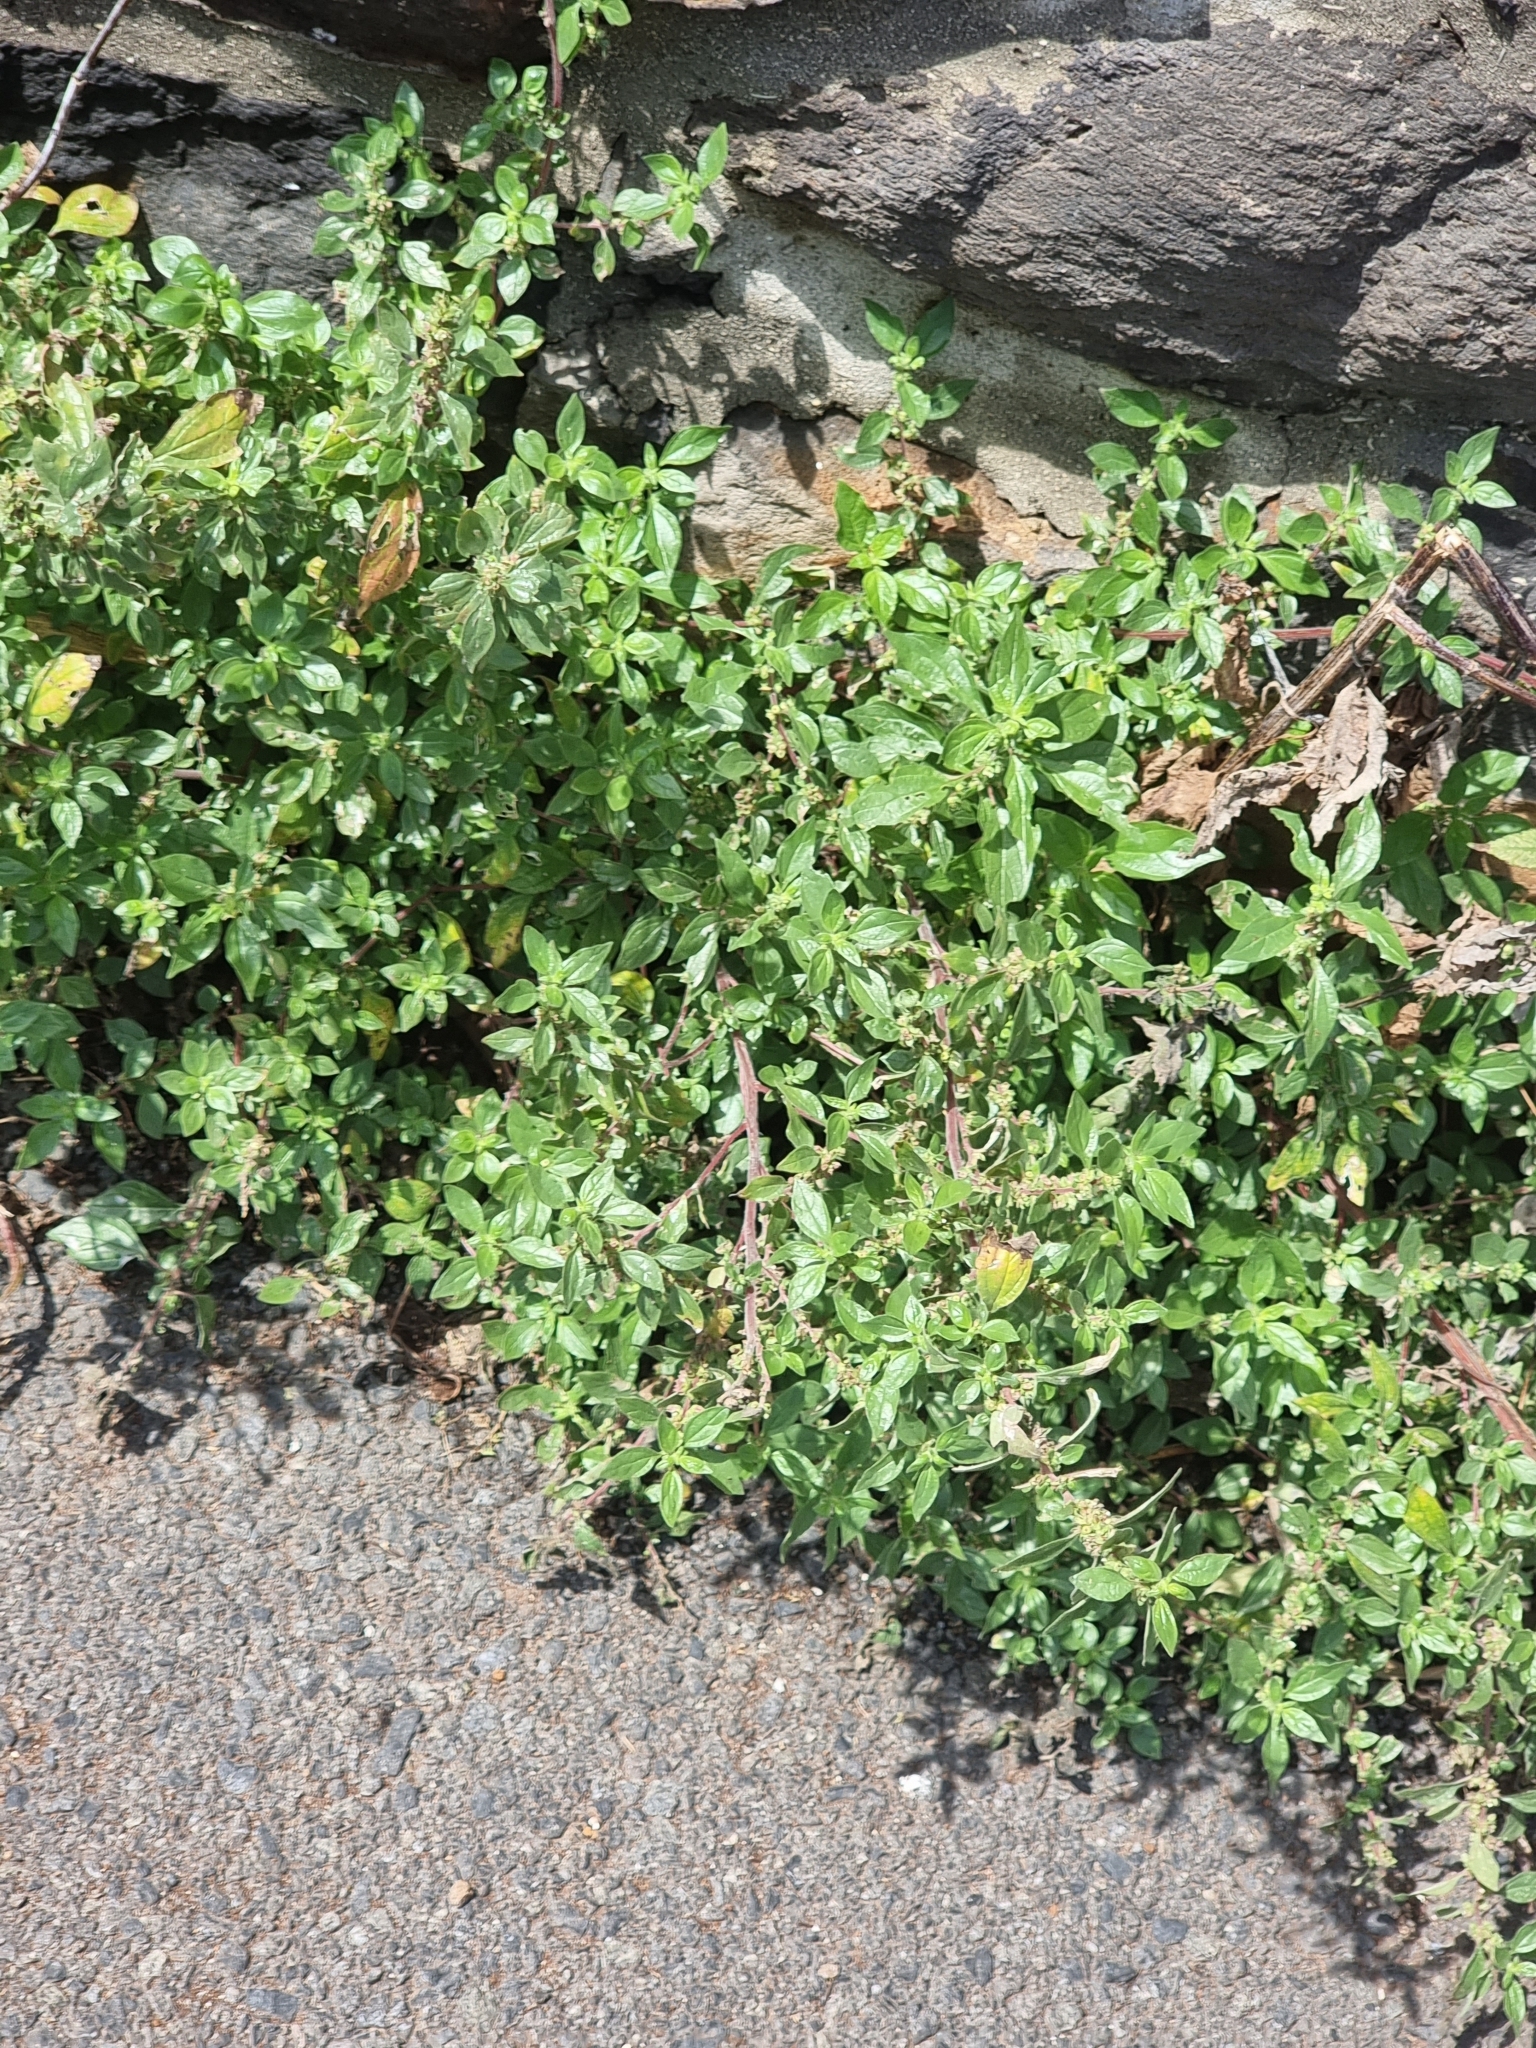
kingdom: Plantae
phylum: Tracheophyta
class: Magnoliopsida
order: Rosales
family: Urticaceae
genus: Parietaria
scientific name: Parietaria judaica
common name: Pellitory-of-the-wall
